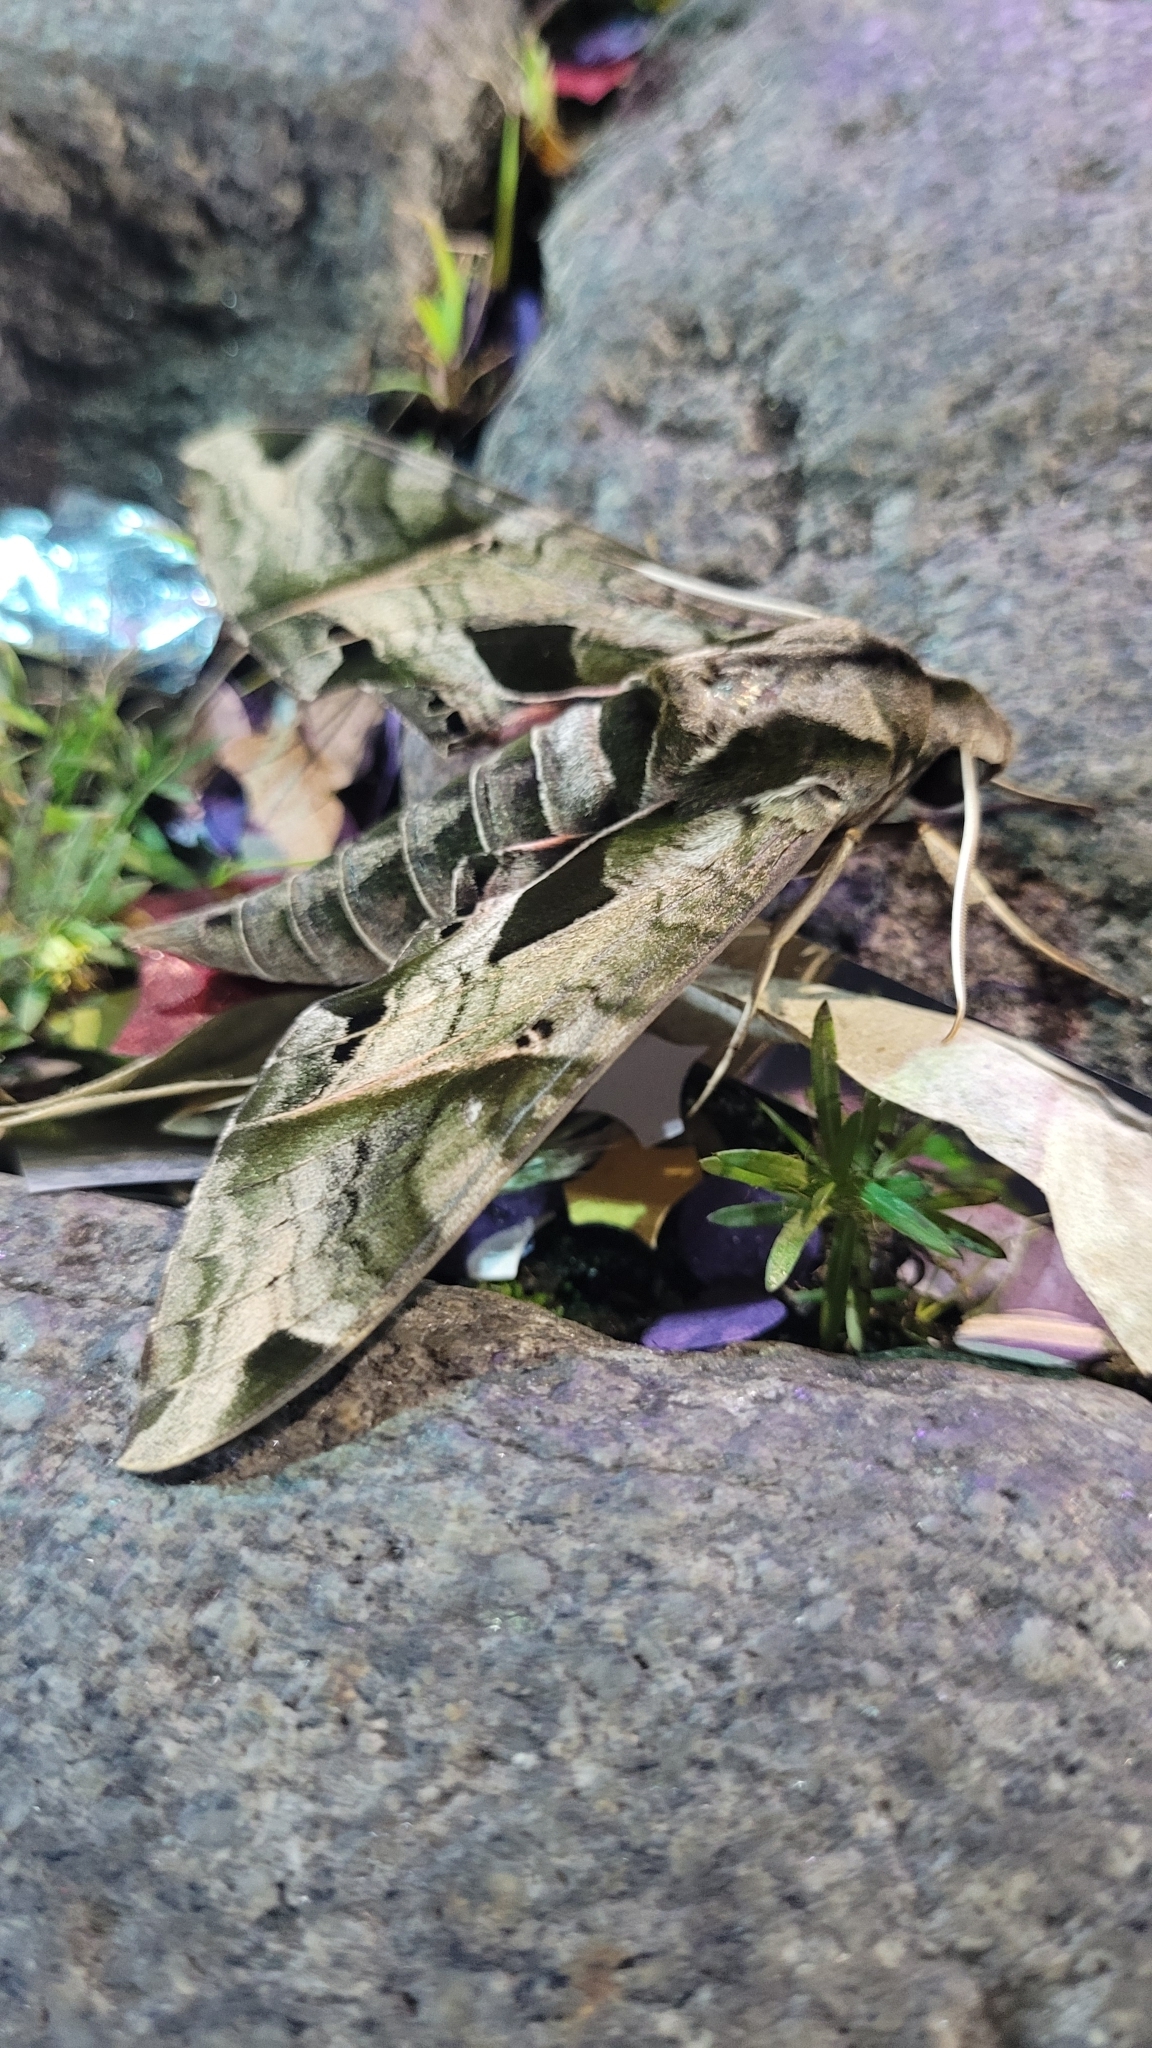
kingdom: Animalia
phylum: Arthropoda
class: Insecta
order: Lepidoptera
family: Sphingidae
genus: Eumorpha
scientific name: Eumorpha analis
